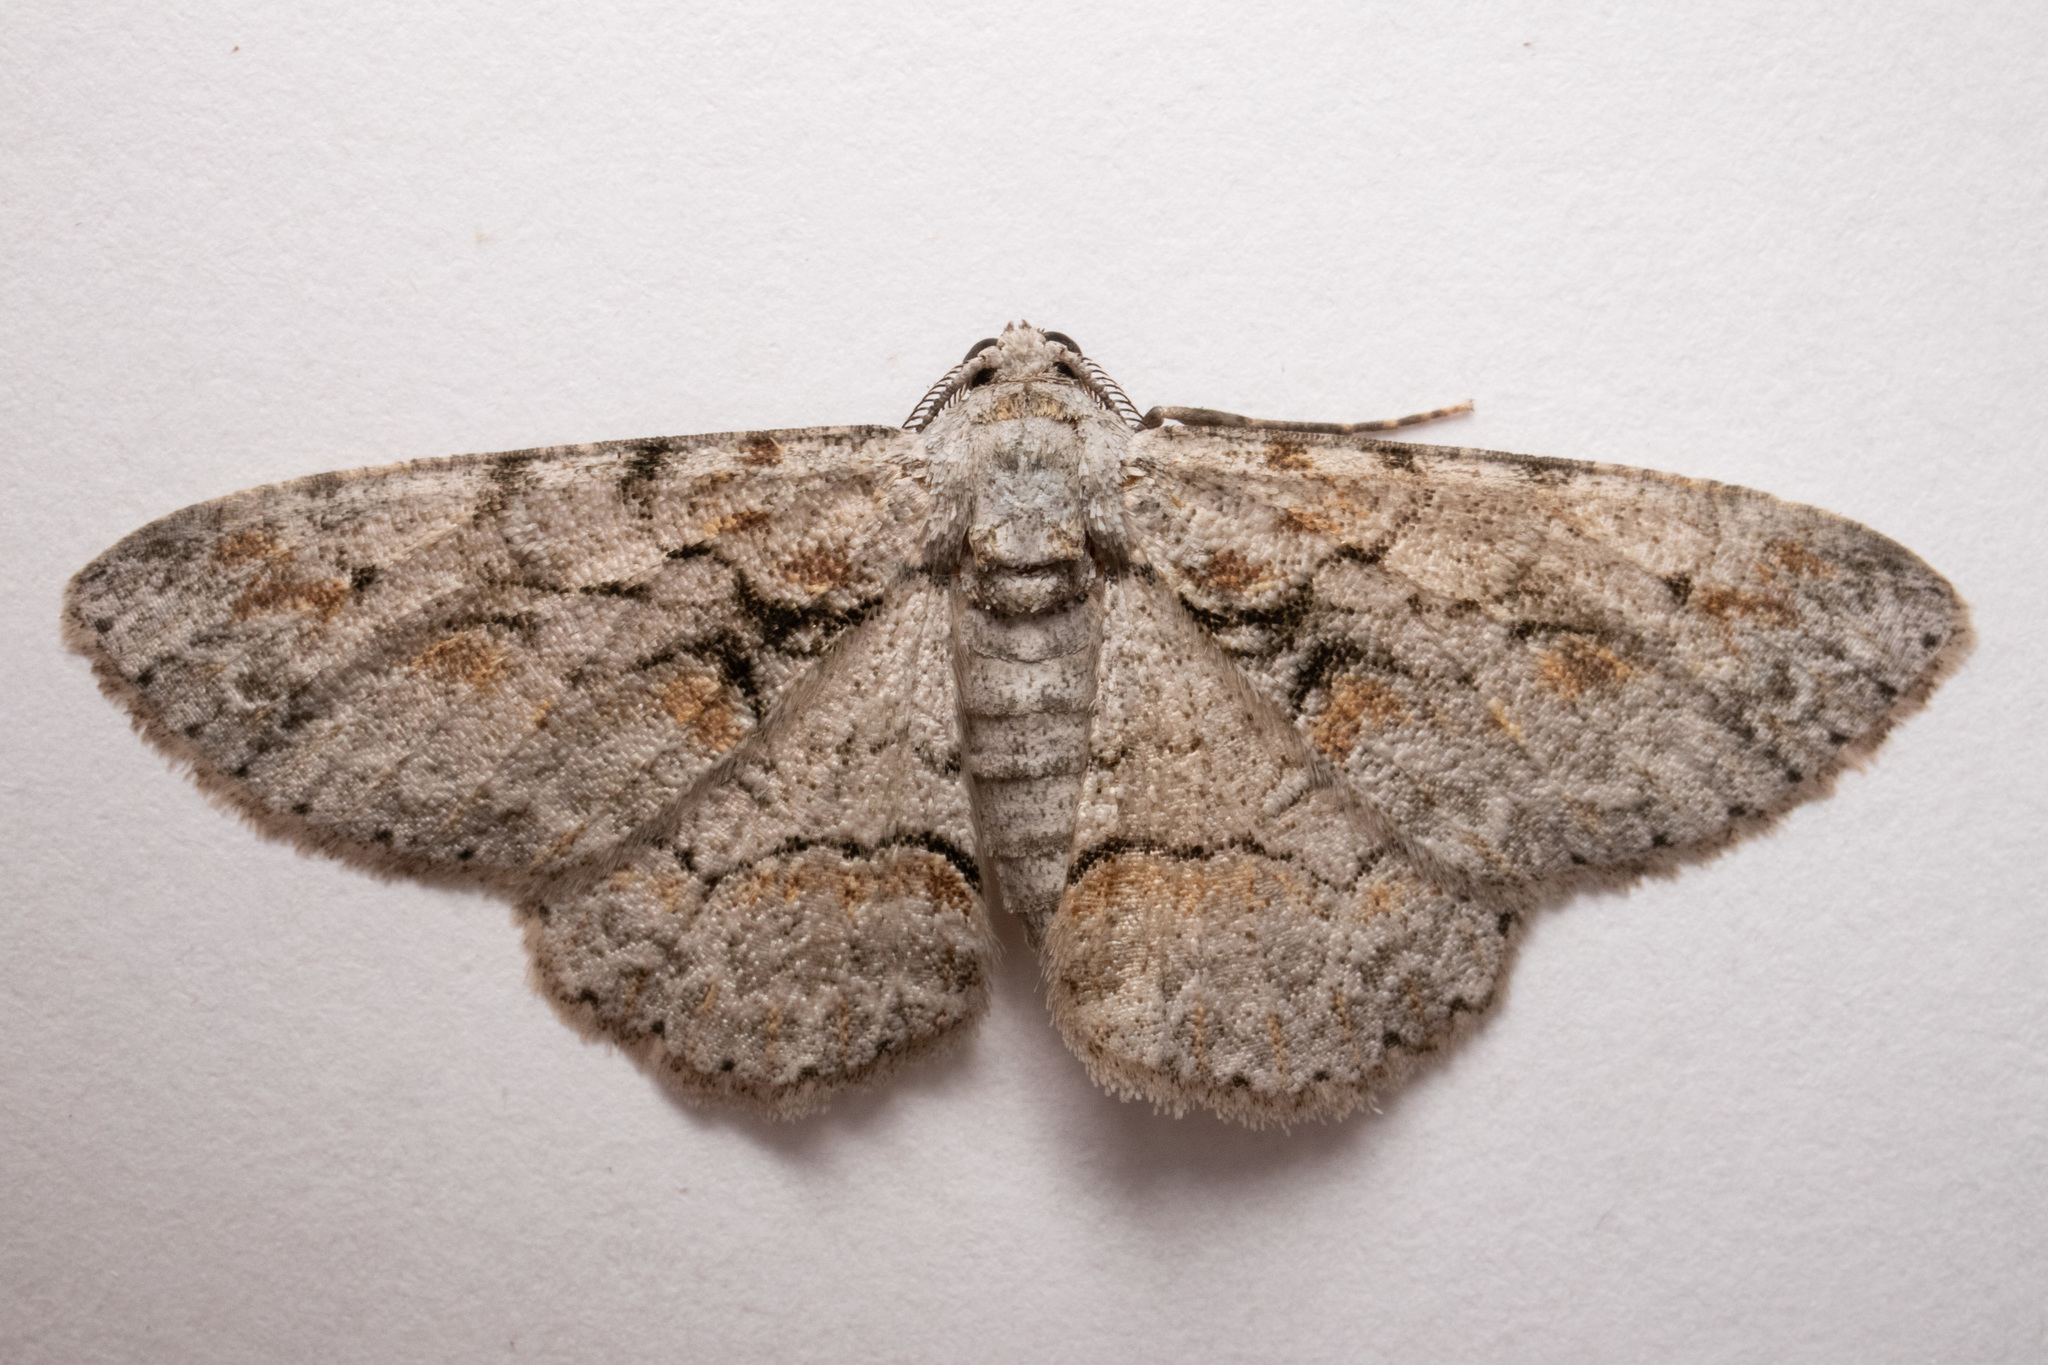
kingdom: Animalia
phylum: Arthropoda
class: Insecta
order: Lepidoptera
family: Geometridae
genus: Iridopsis
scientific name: Iridopsis defectaria
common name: Brown-shaded gray
